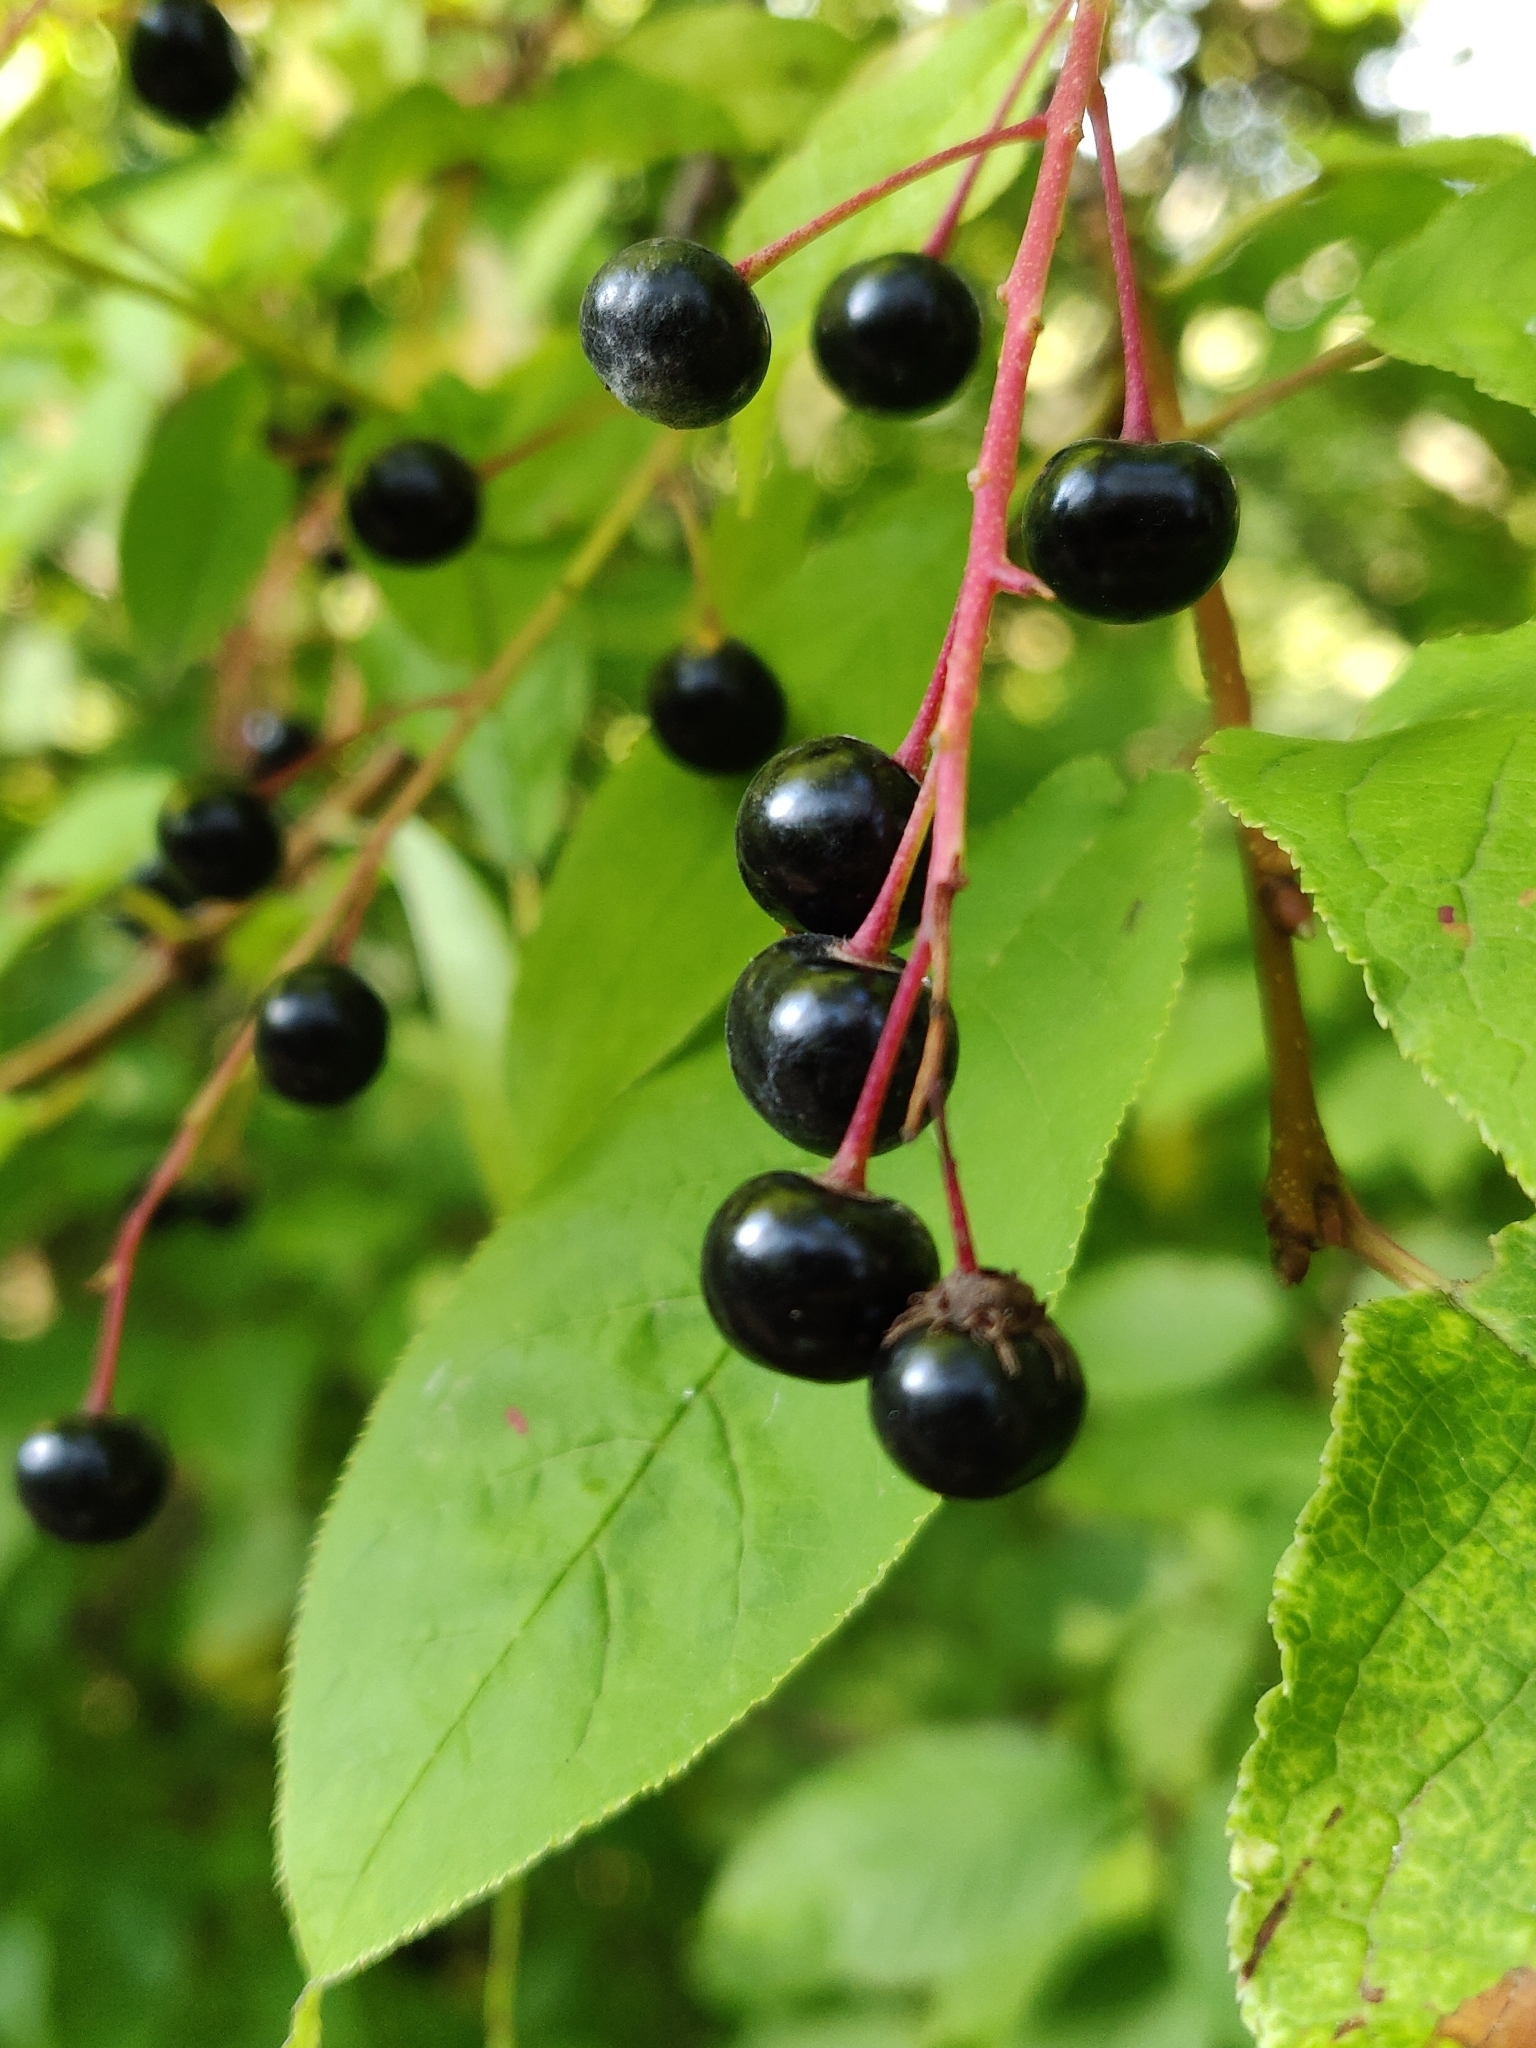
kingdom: Plantae
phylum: Tracheophyta
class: Magnoliopsida
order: Rosales
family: Rosaceae
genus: Prunus
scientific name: Prunus padus
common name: Bird cherry
